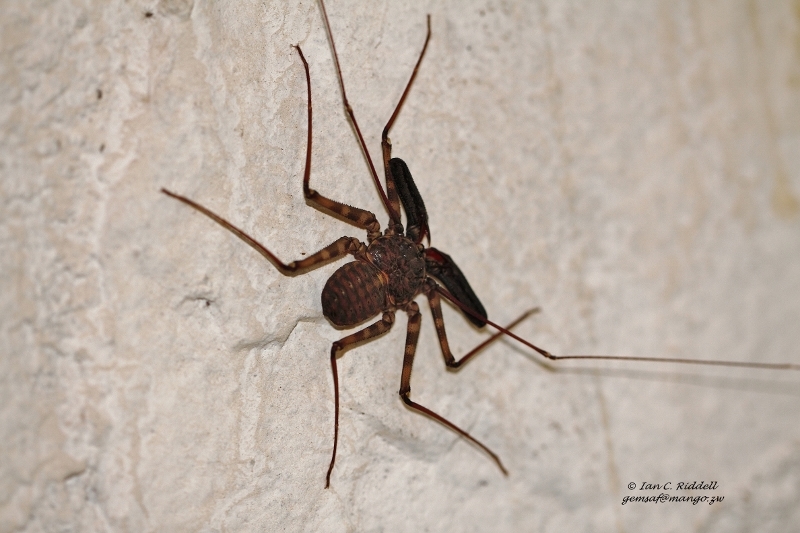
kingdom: Animalia
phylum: Arthropoda
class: Arachnida
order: Amblypygi
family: Phrynichidae
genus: Damon
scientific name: Damon variegatus
